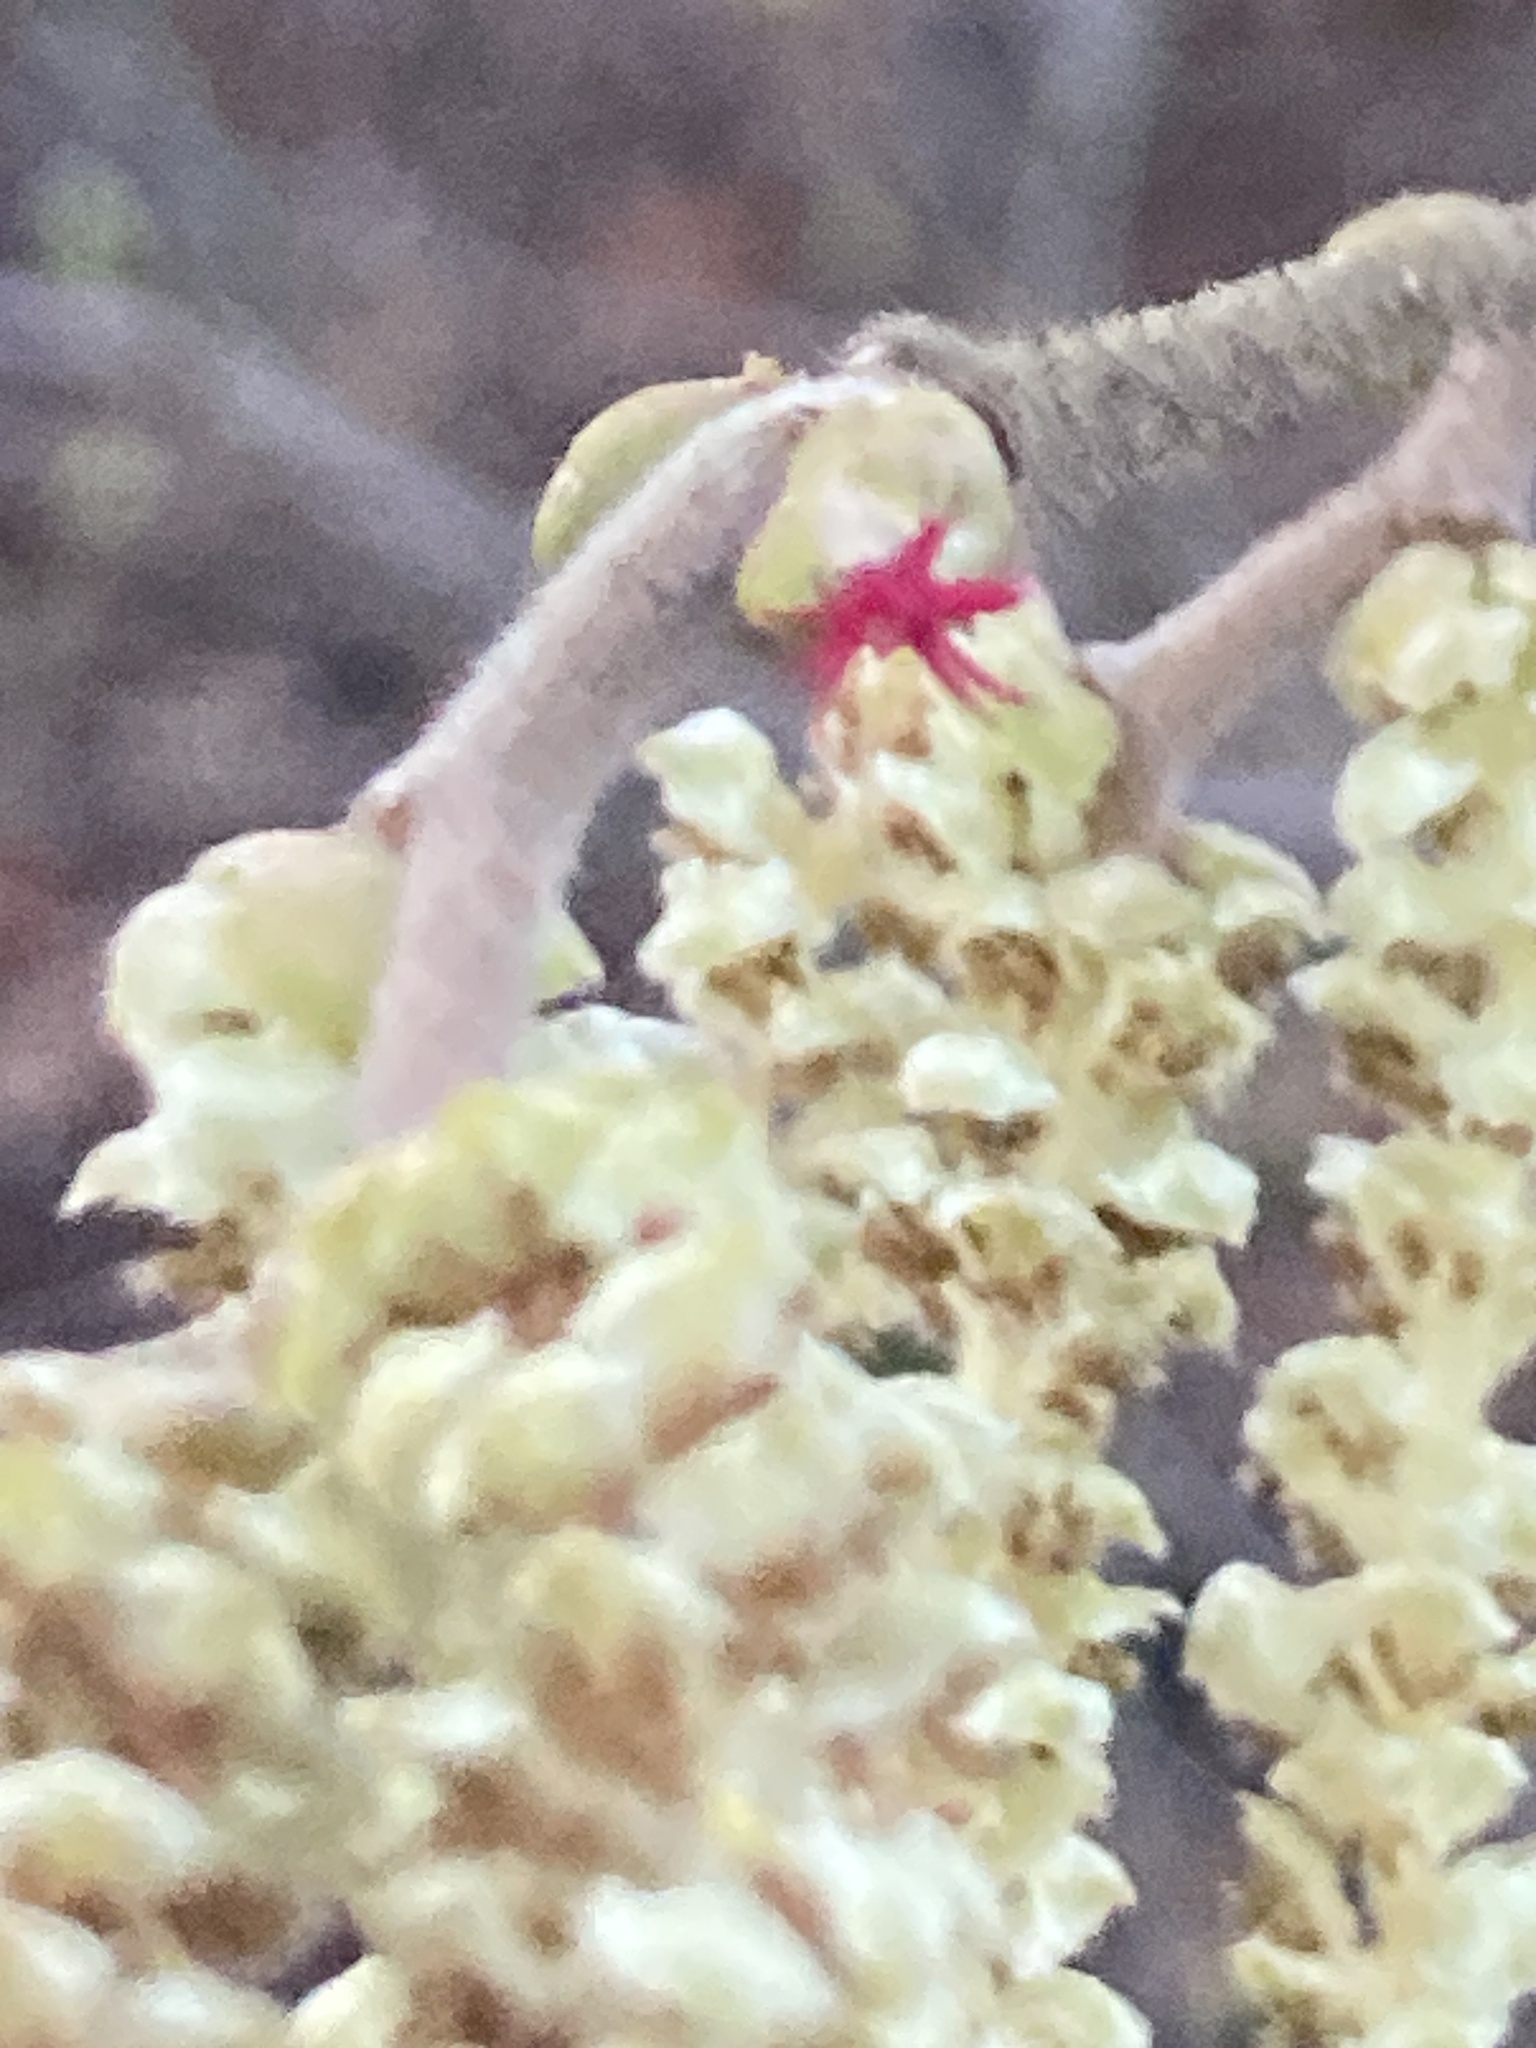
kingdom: Plantae
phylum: Tracheophyta
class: Magnoliopsida
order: Fagales
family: Betulaceae
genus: Corylus
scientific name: Corylus avellana
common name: European hazel
